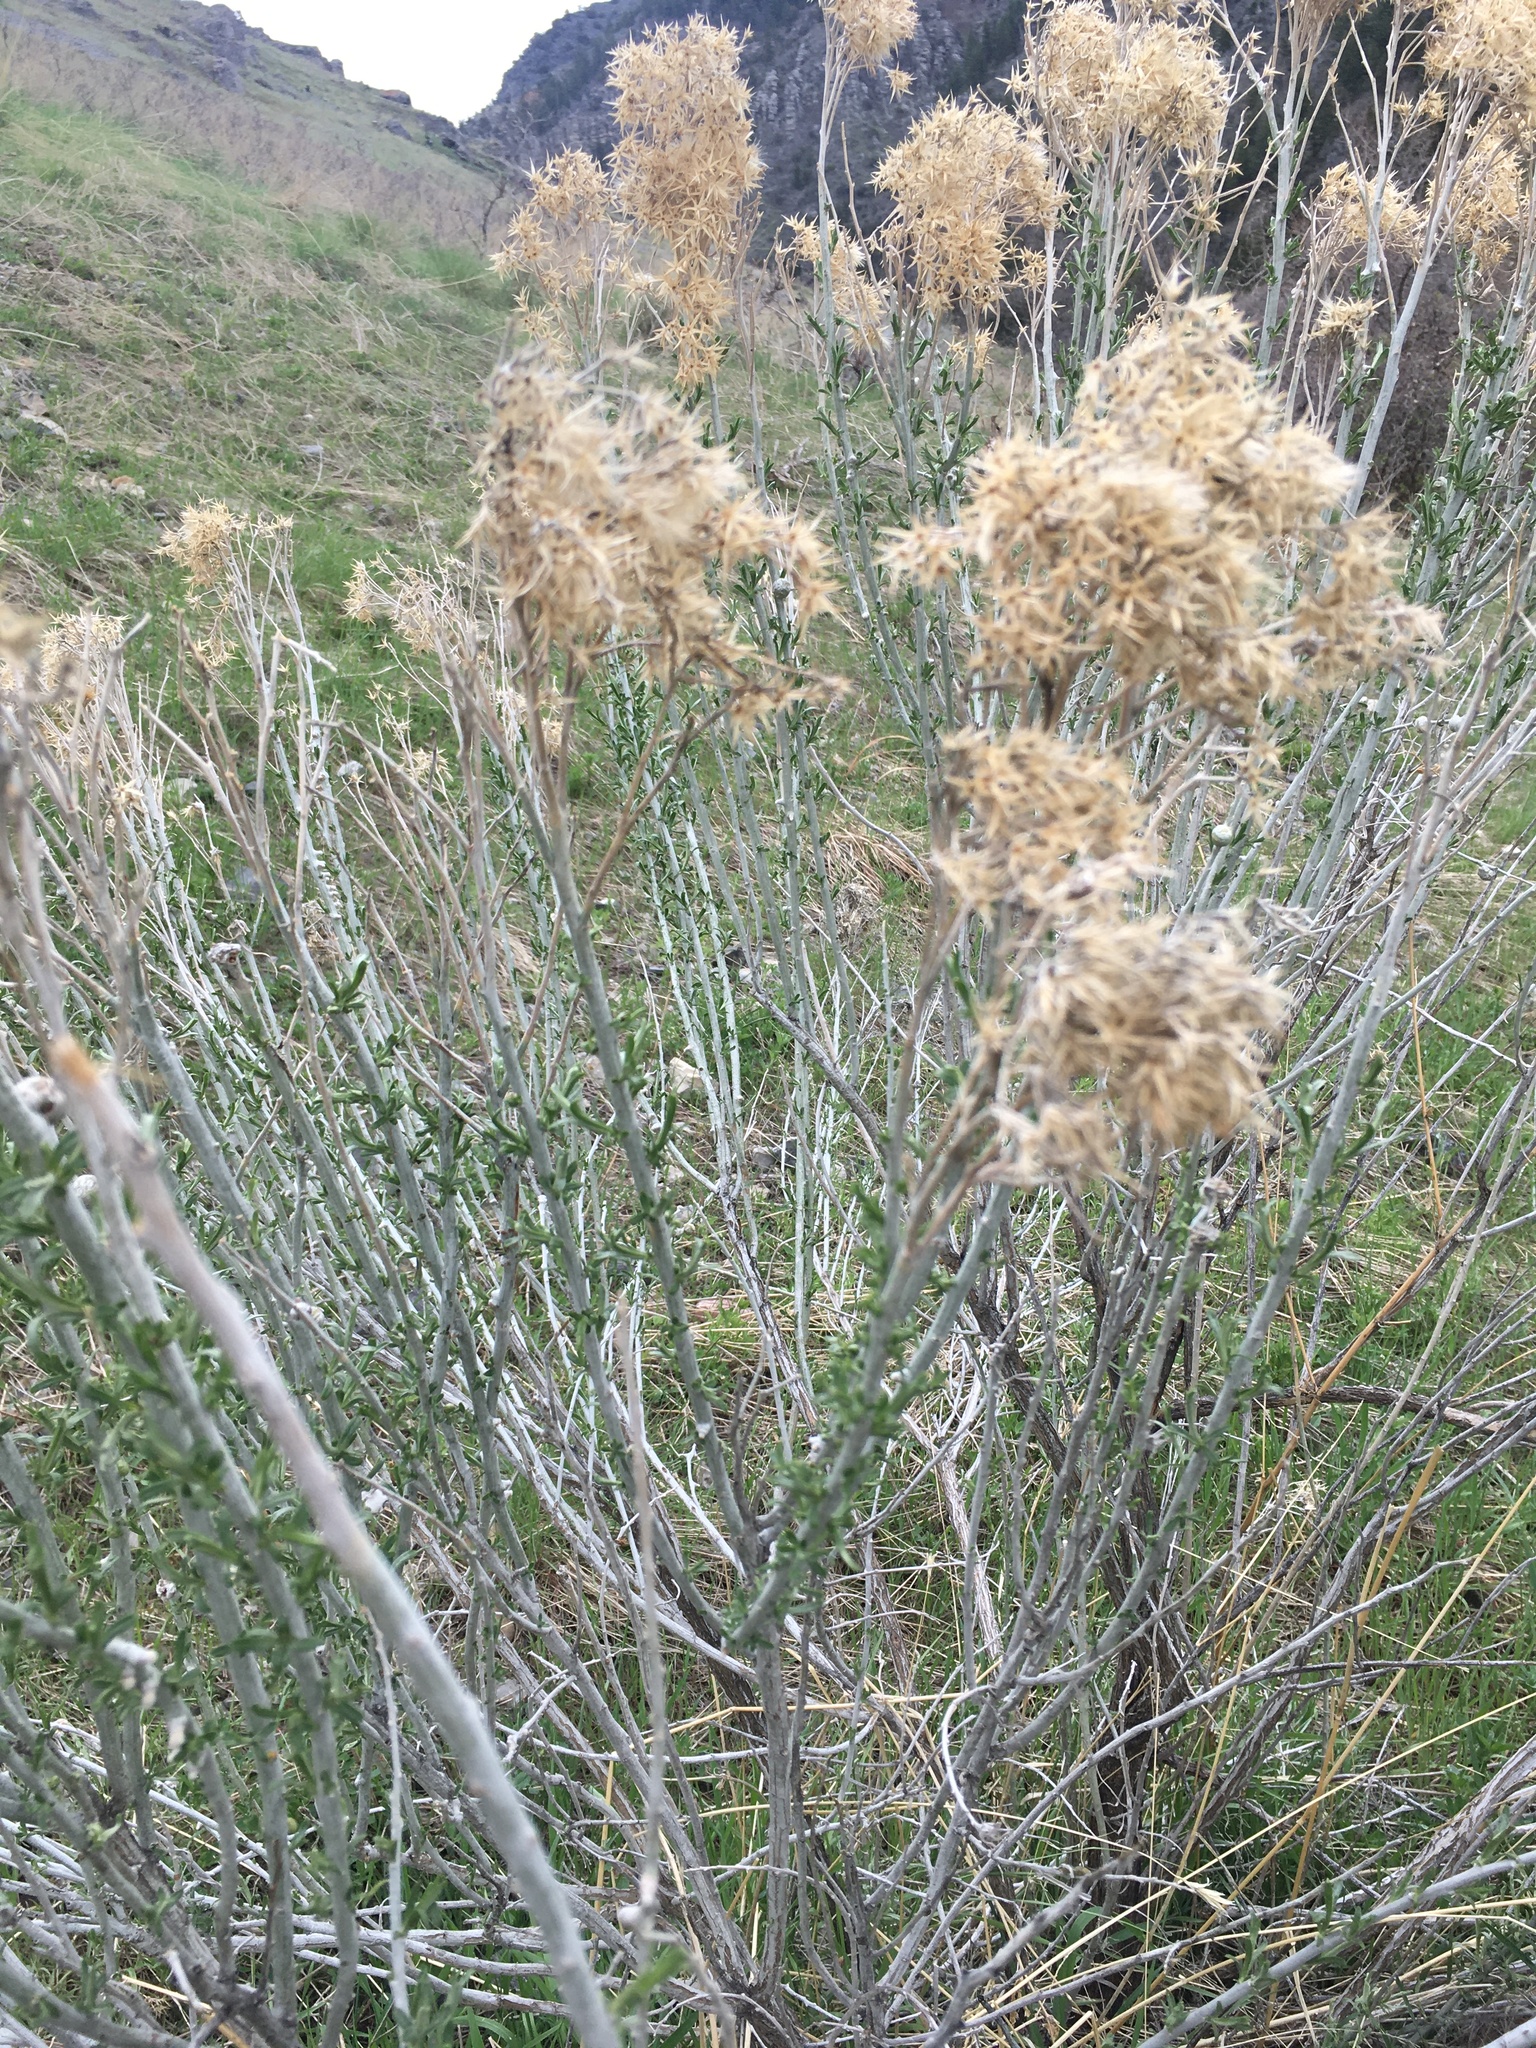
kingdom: Plantae
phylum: Tracheophyta
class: Magnoliopsida
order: Asterales
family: Asteraceae
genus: Ericameria
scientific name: Ericameria nauseosa
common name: Rubber rabbitbrush
